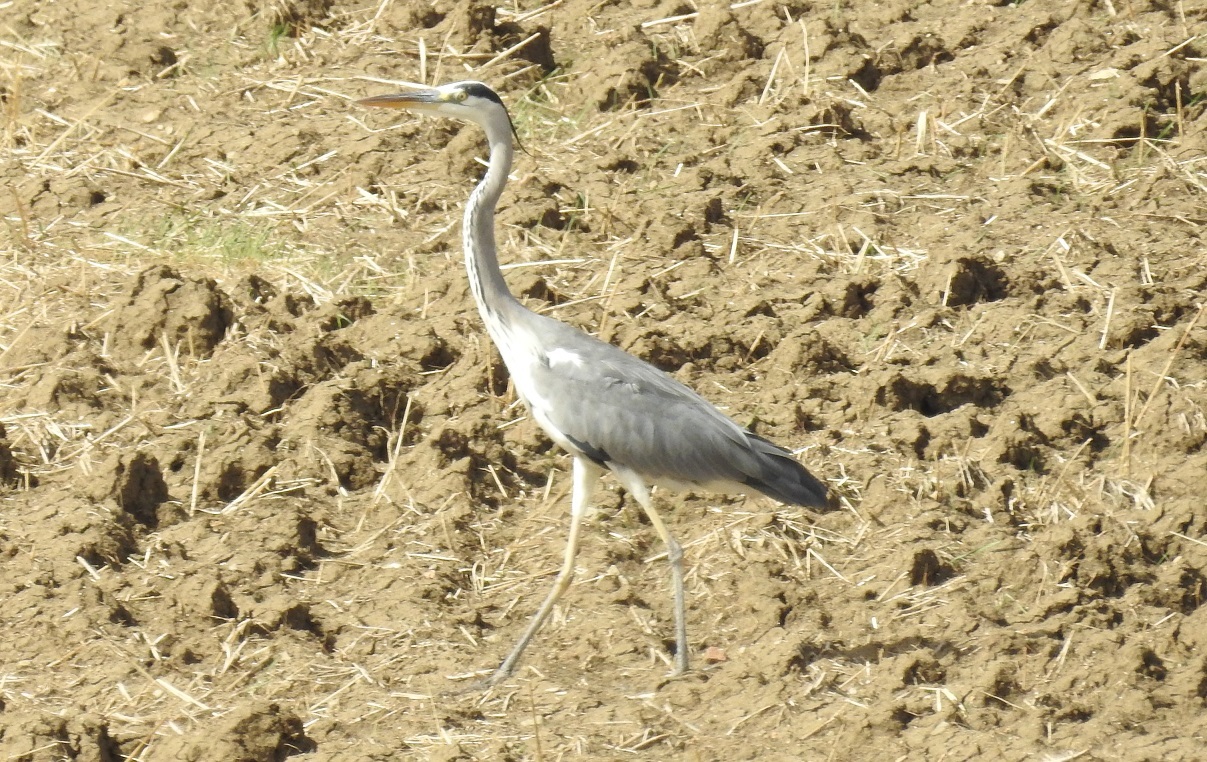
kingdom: Animalia
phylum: Chordata
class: Aves
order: Pelecaniformes
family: Ardeidae
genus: Ardea
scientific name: Ardea cinerea
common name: Grey heron
